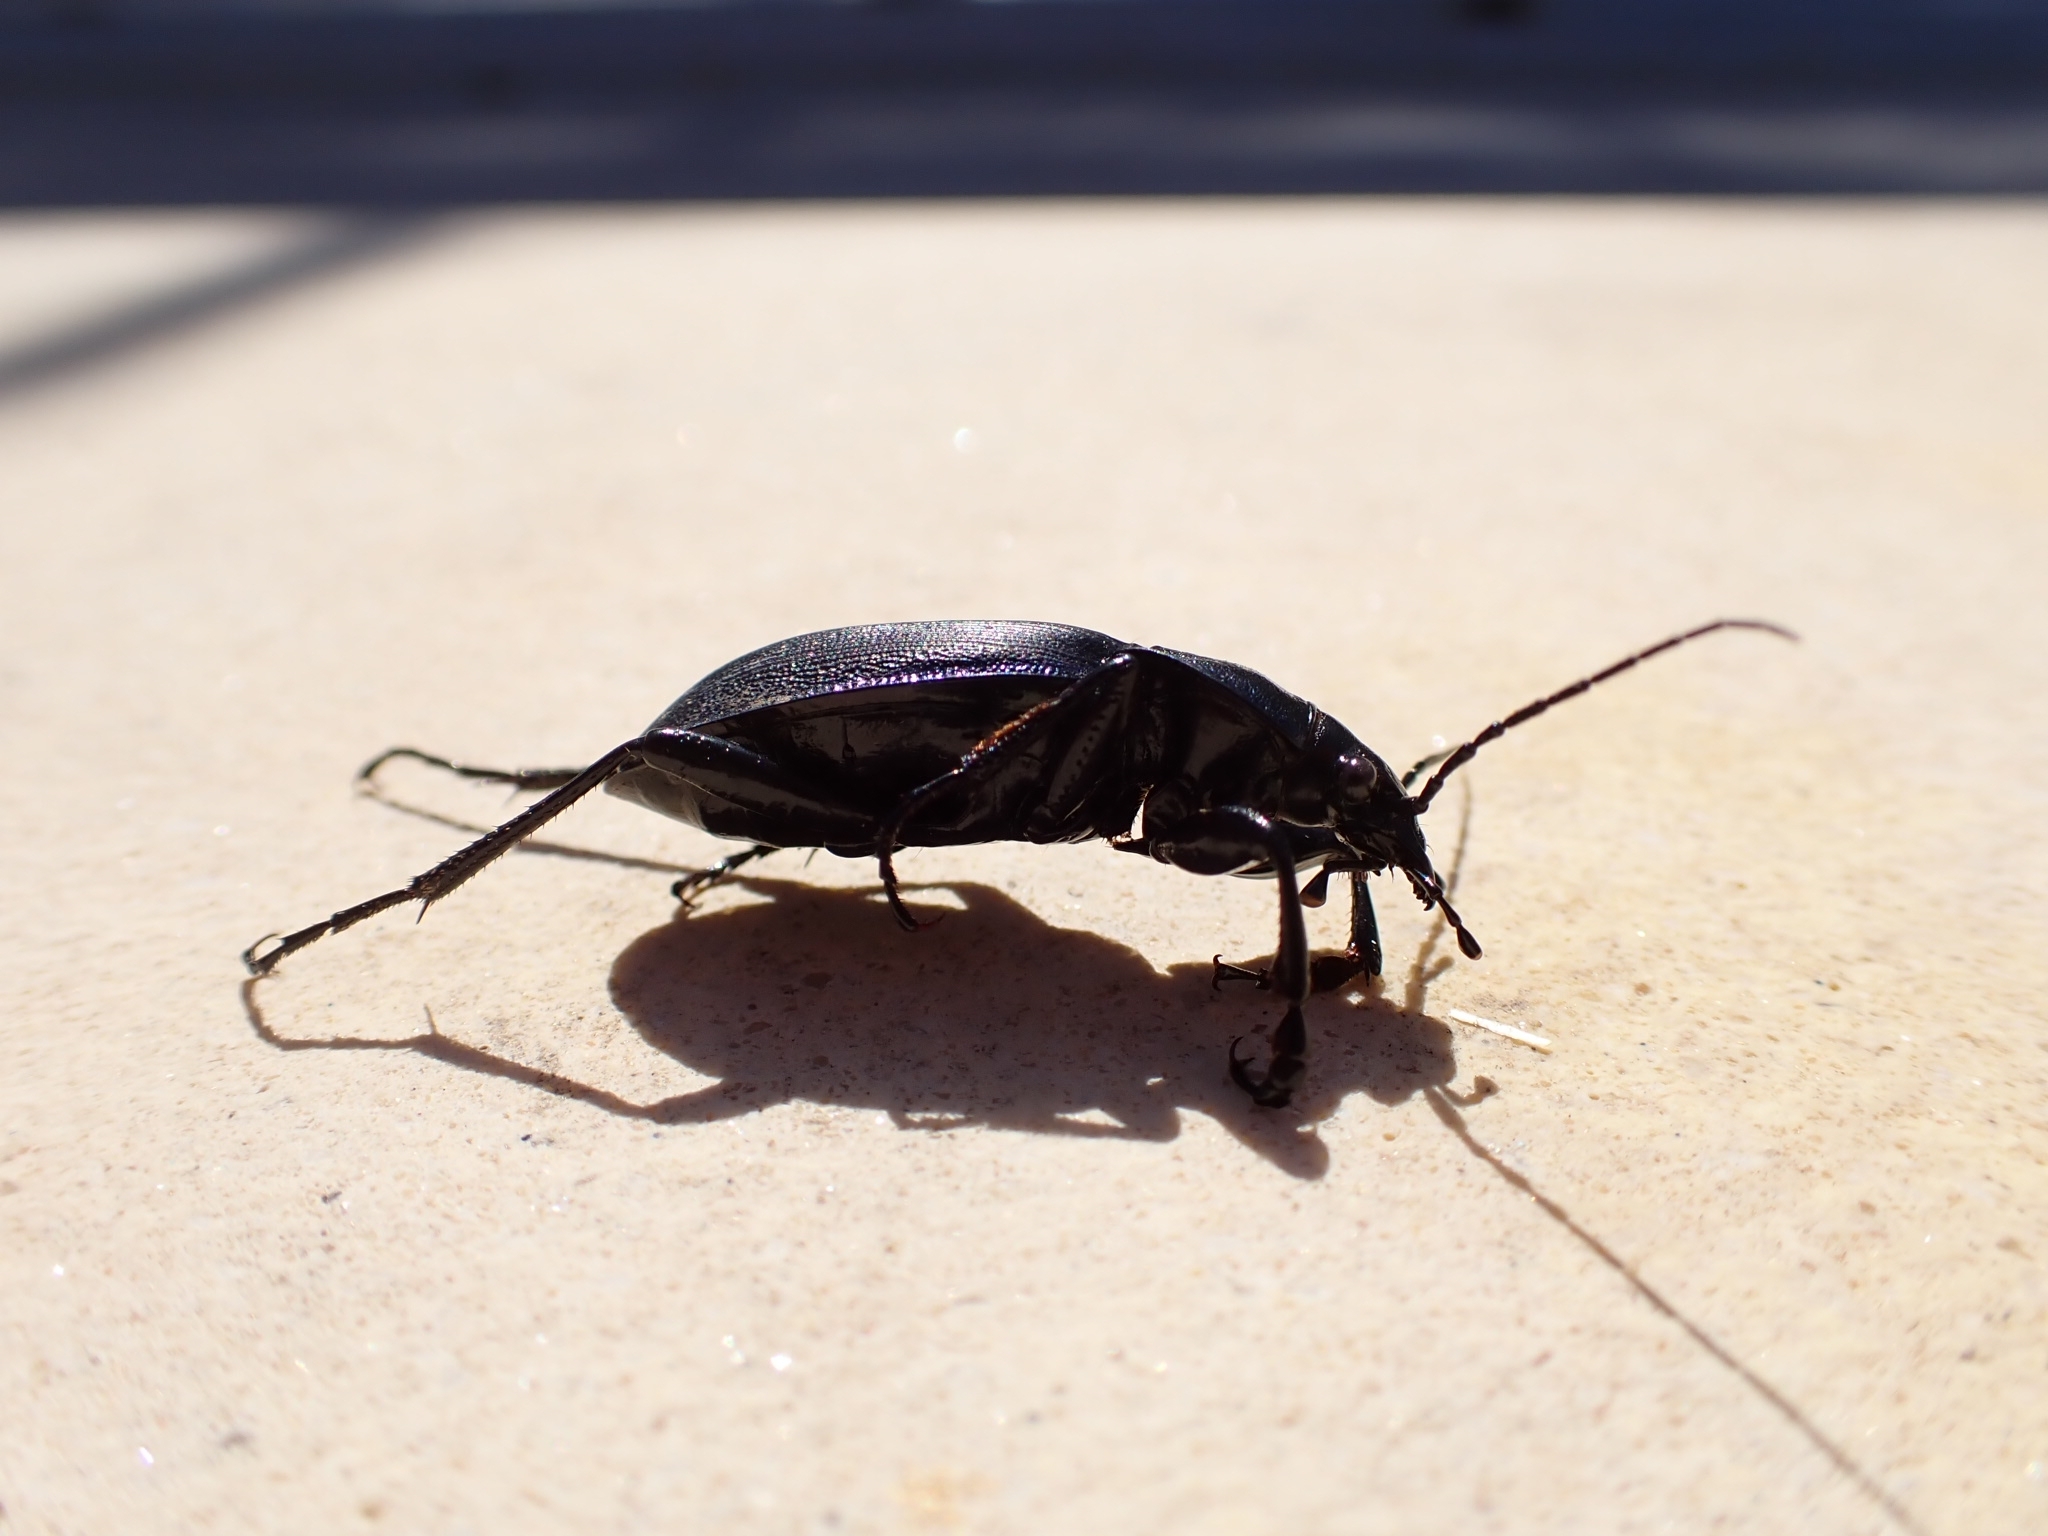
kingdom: Animalia
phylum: Arthropoda
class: Insecta
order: Coleoptera
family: Carabidae
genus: Carabus
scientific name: Carabus purpurascens
